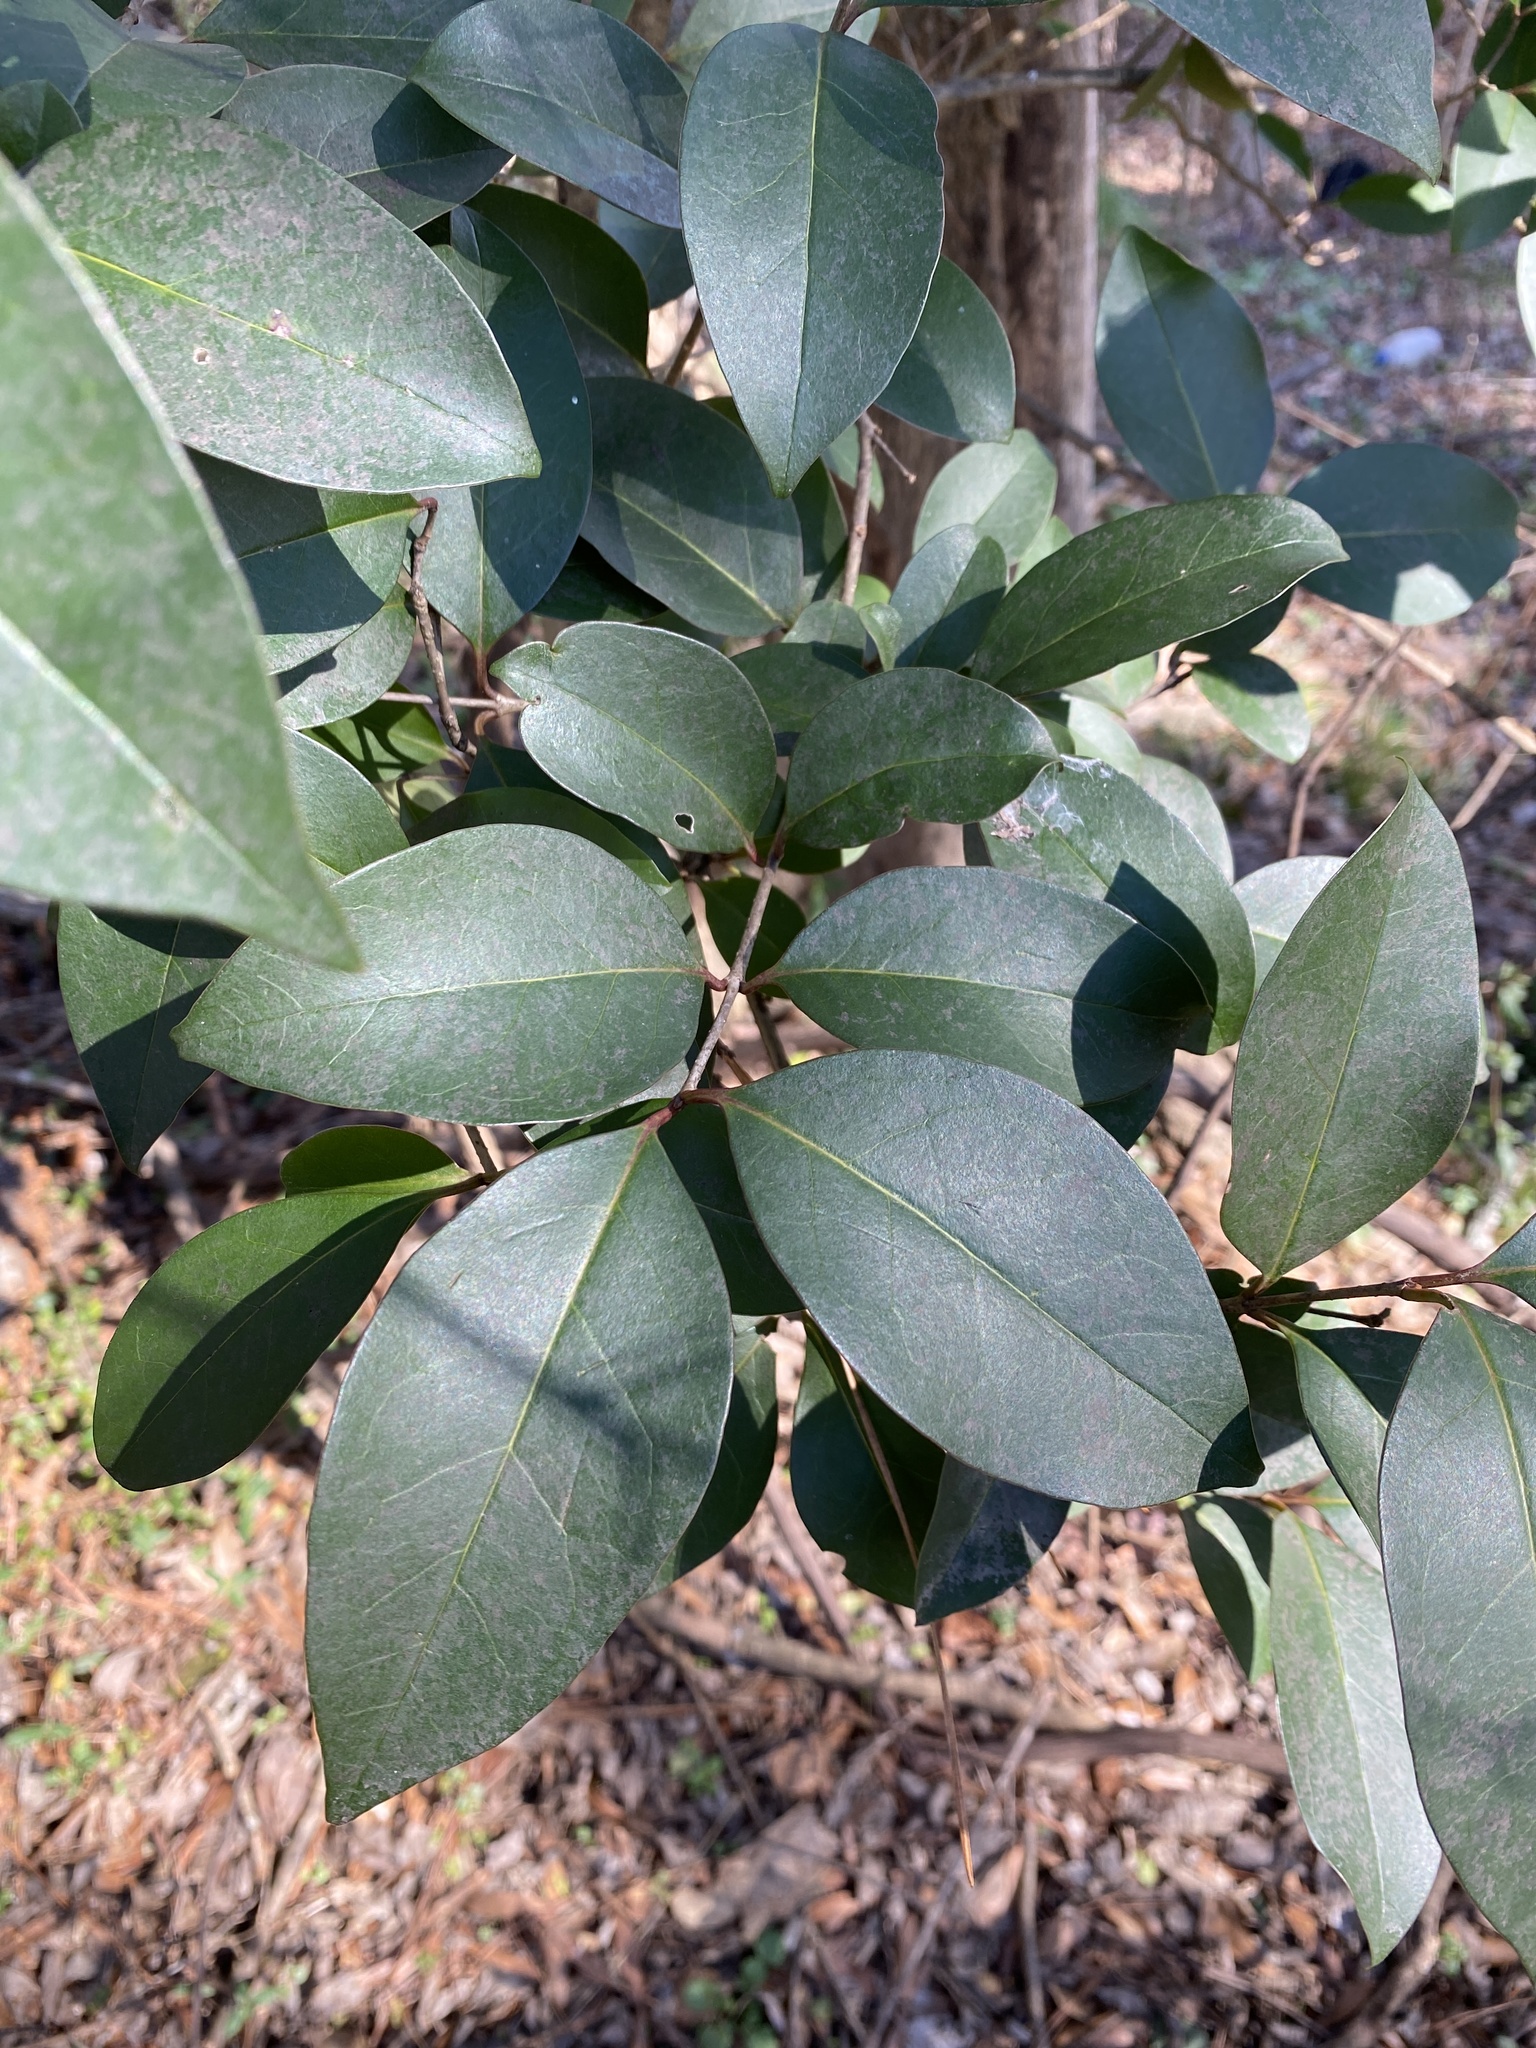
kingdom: Plantae
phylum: Tracheophyta
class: Magnoliopsida
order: Lamiales
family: Oleaceae
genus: Ligustrum
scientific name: Ligustrum lucidum
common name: Glossy privet
